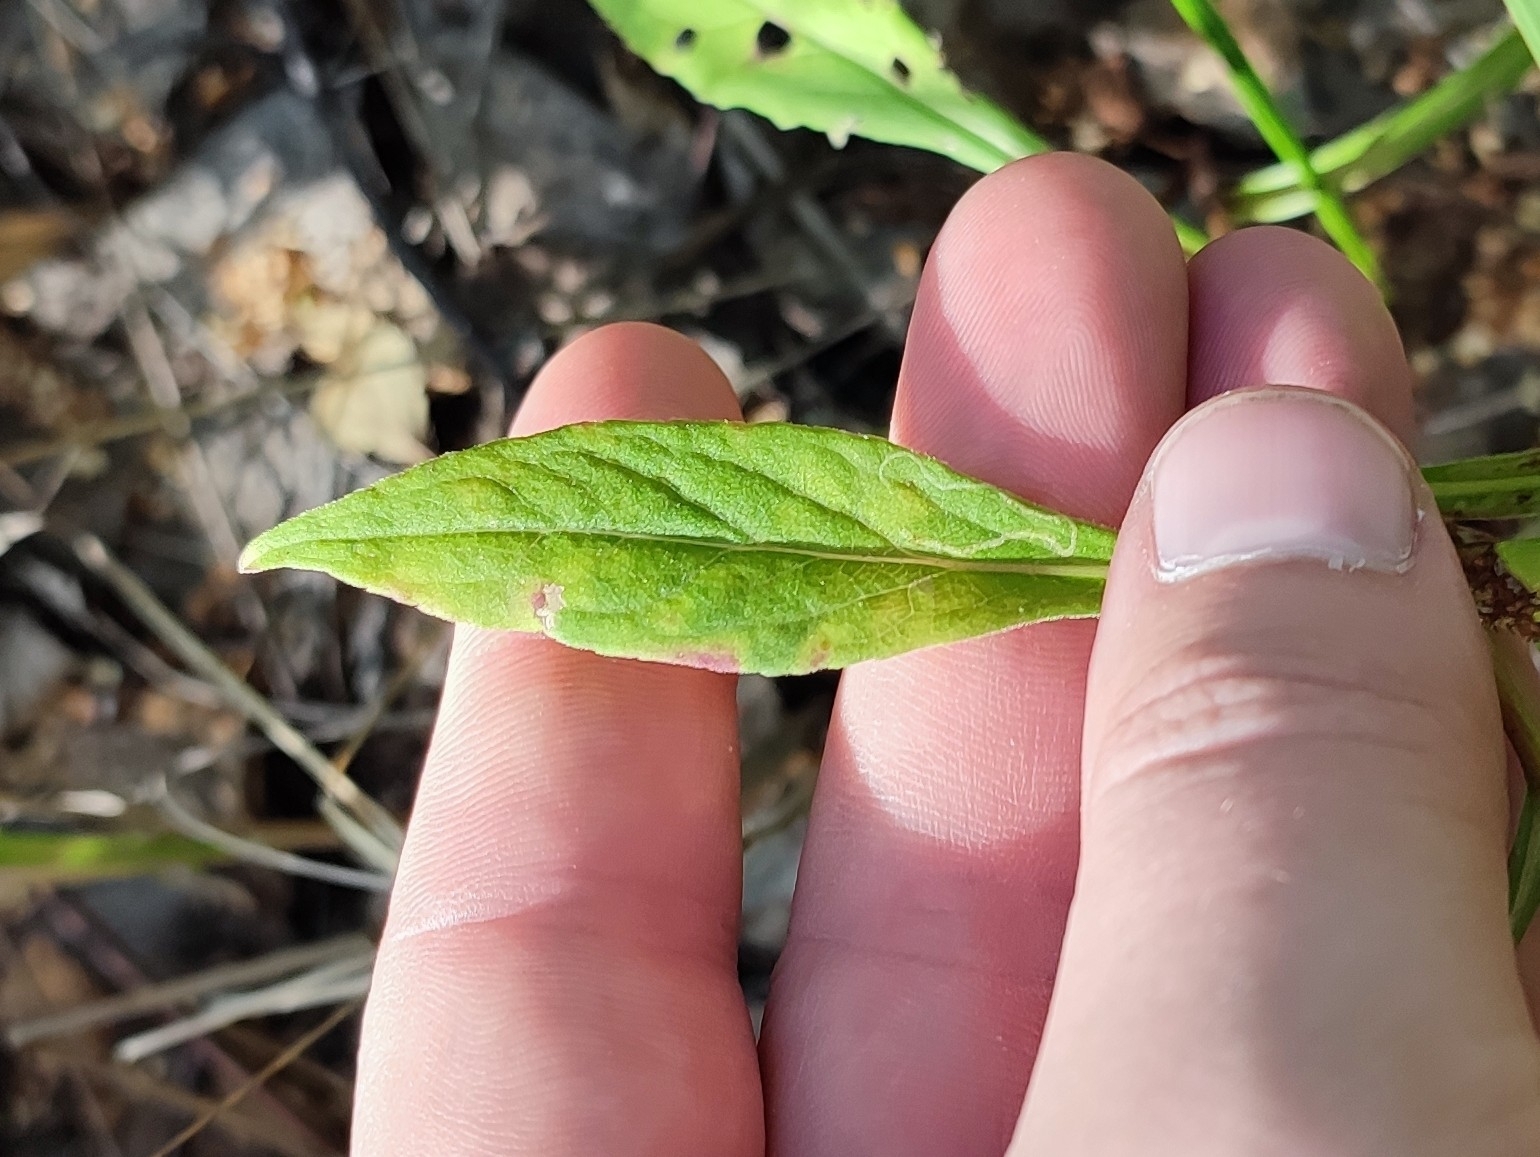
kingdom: Plantae
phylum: Tracheophyta
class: Magnoliopsida
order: Asterales
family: Asteraceae
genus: Solidago
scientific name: Solidago virgaurea
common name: Goldenrod
